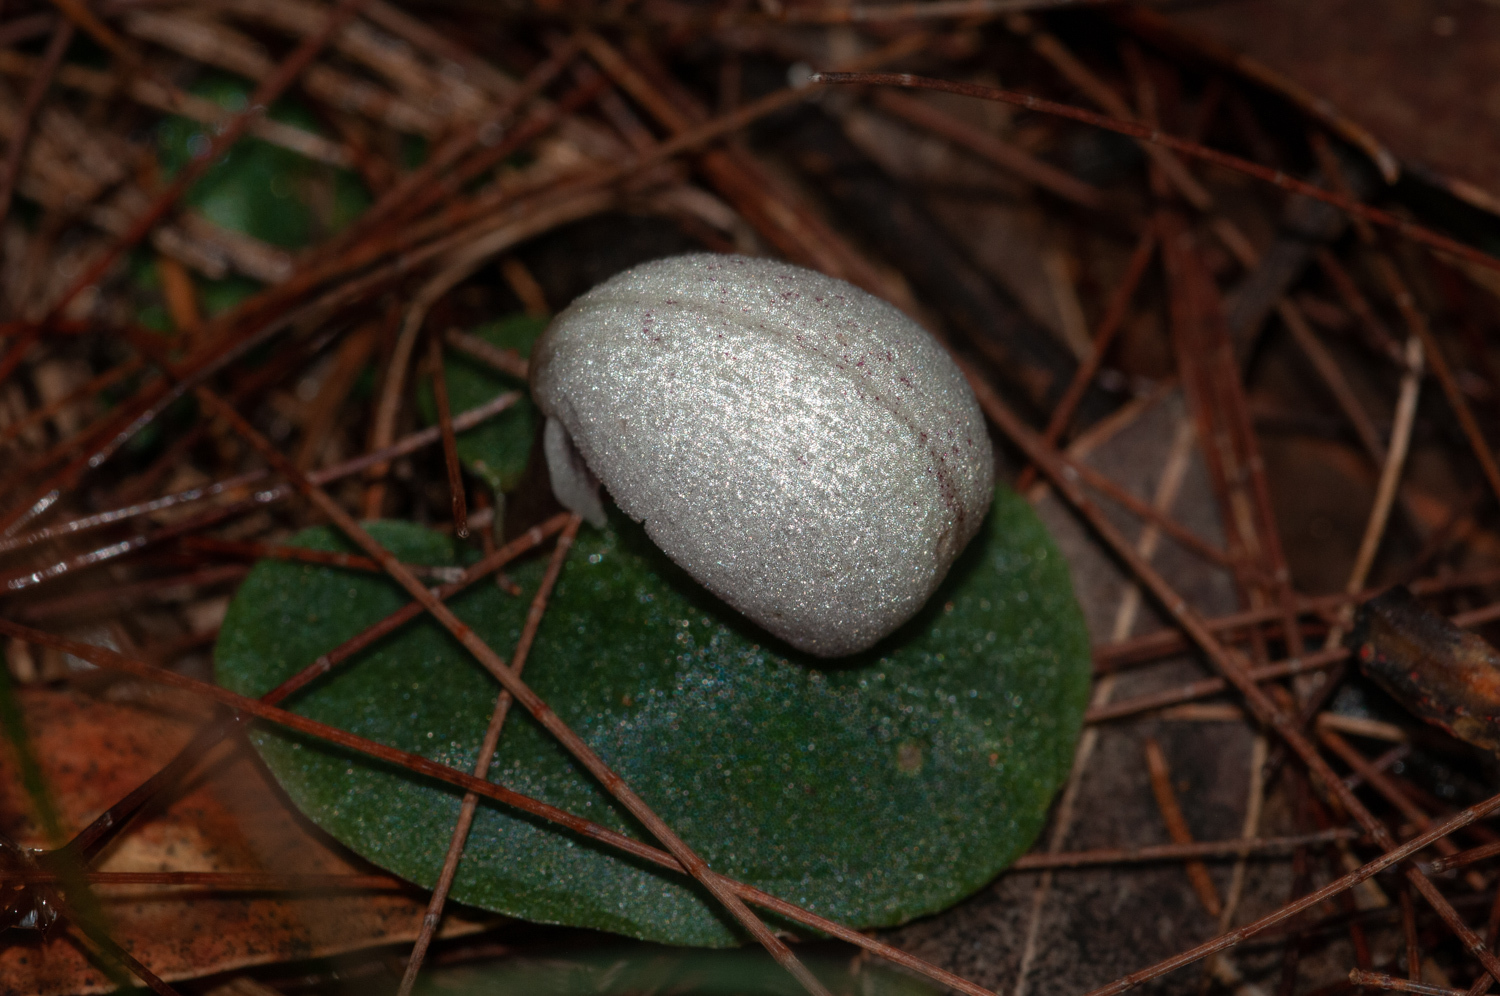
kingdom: Plantae
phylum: Tracheophyta
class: Liliopsida
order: Asparagales
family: Orchidaceae
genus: Corybas
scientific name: Corybas barbarae
